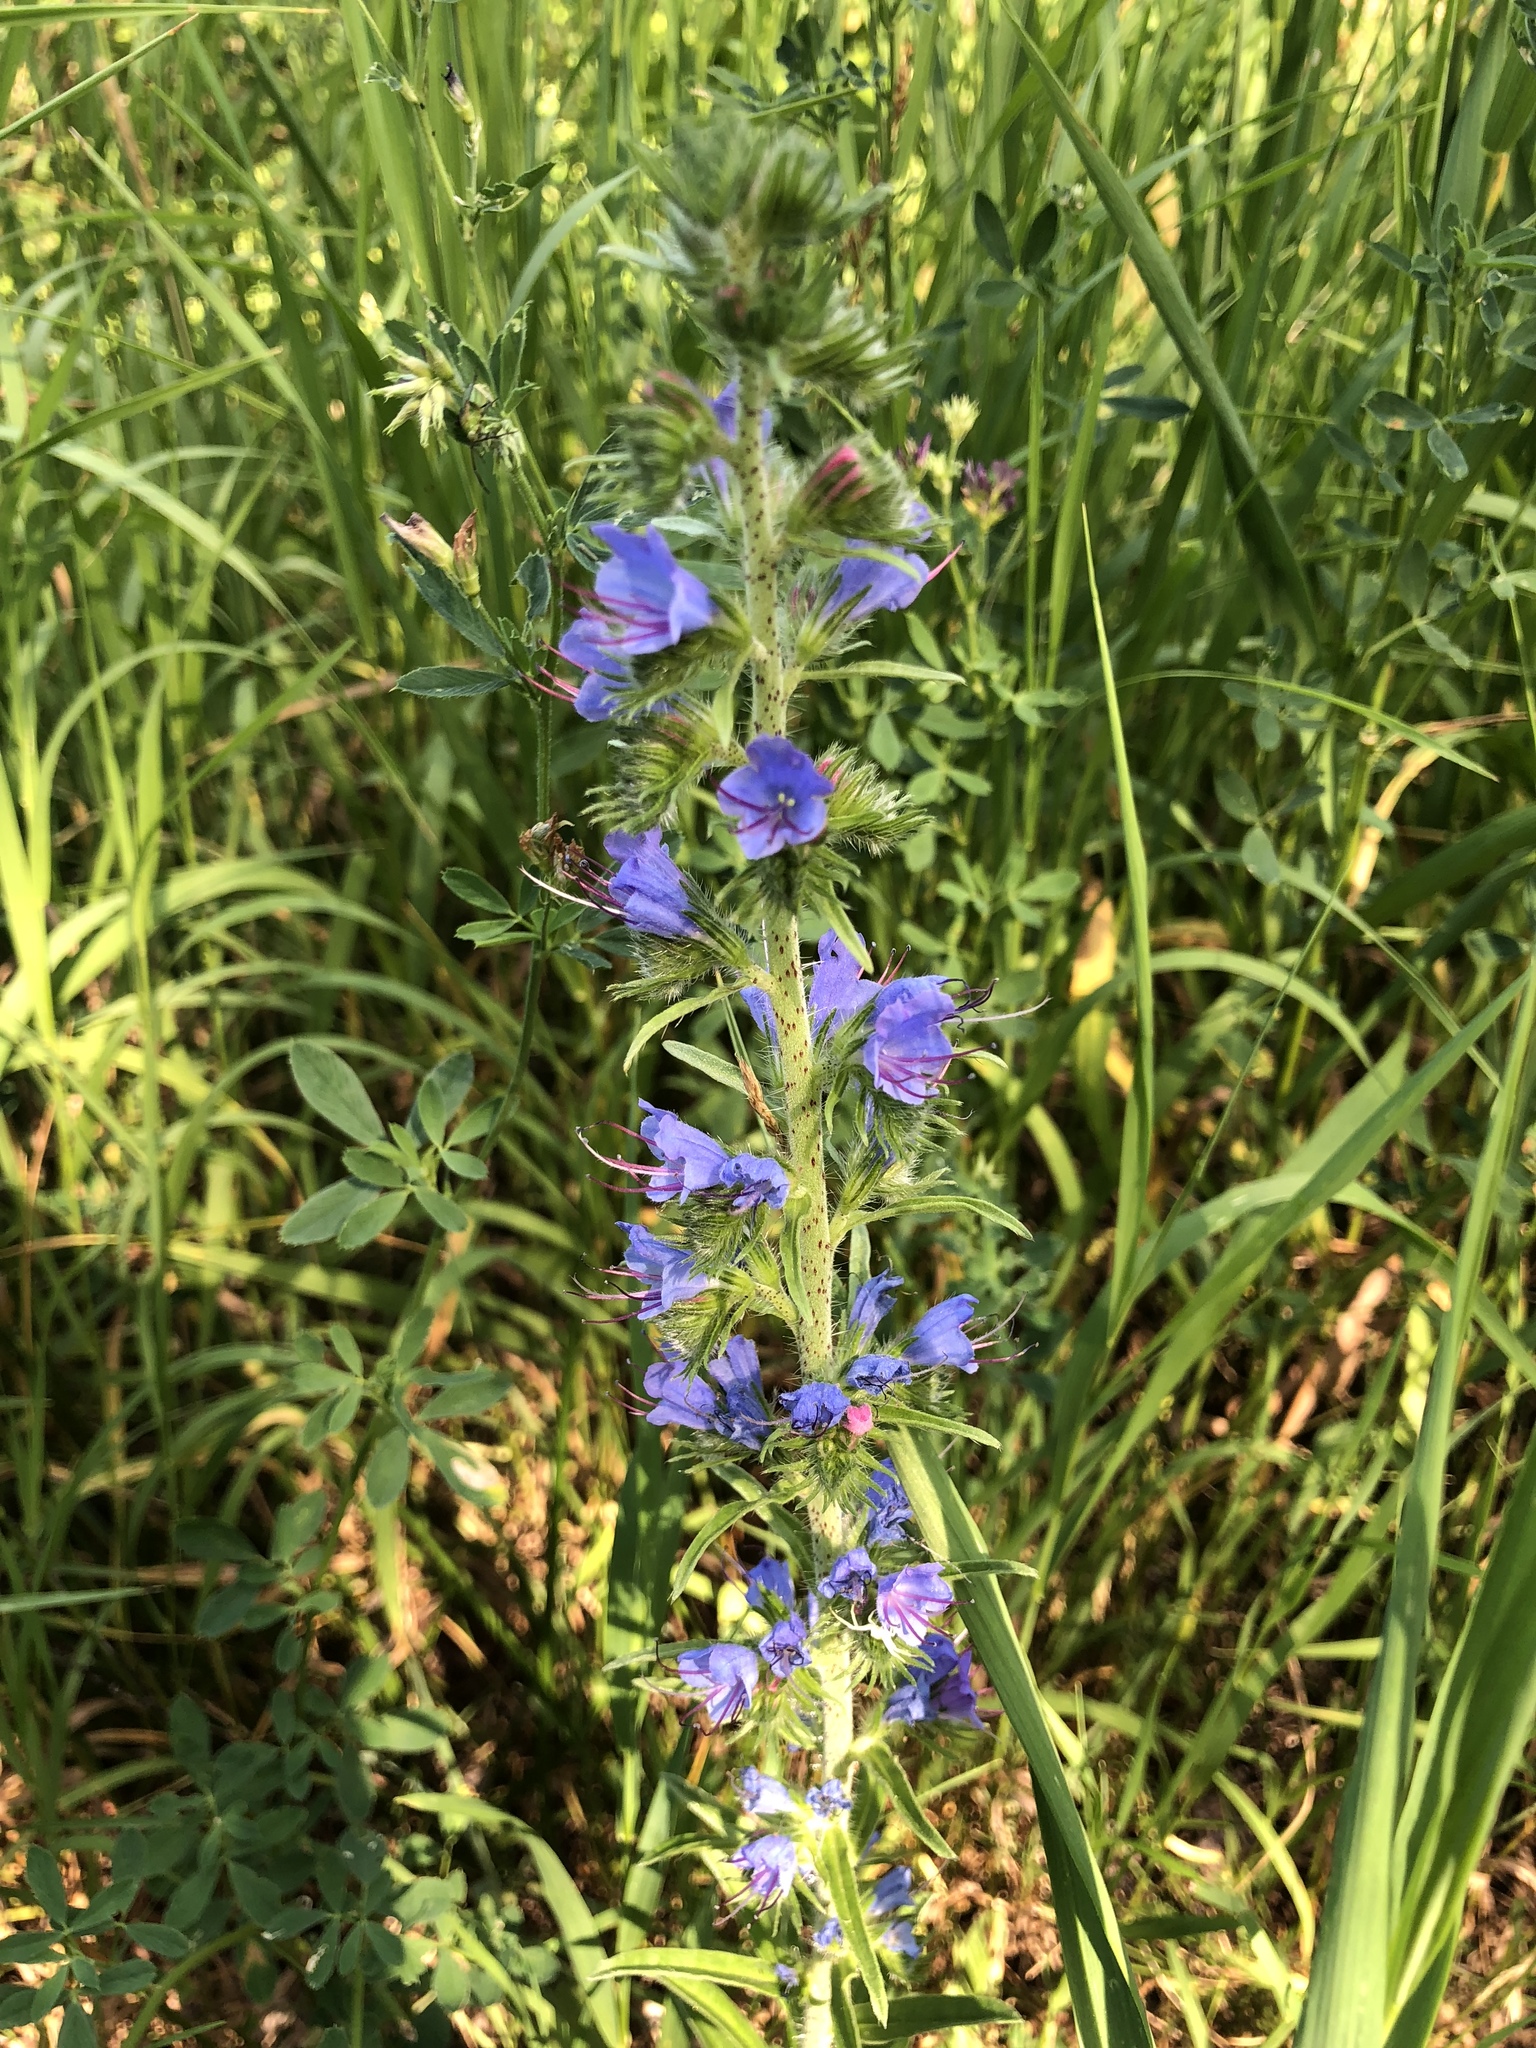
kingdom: Plantae
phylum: Tracheophyta
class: Magnoliopsida
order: Boraginales
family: Boraginaceae
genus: Echium
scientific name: Echium vulgare
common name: Common viper's bugloss
